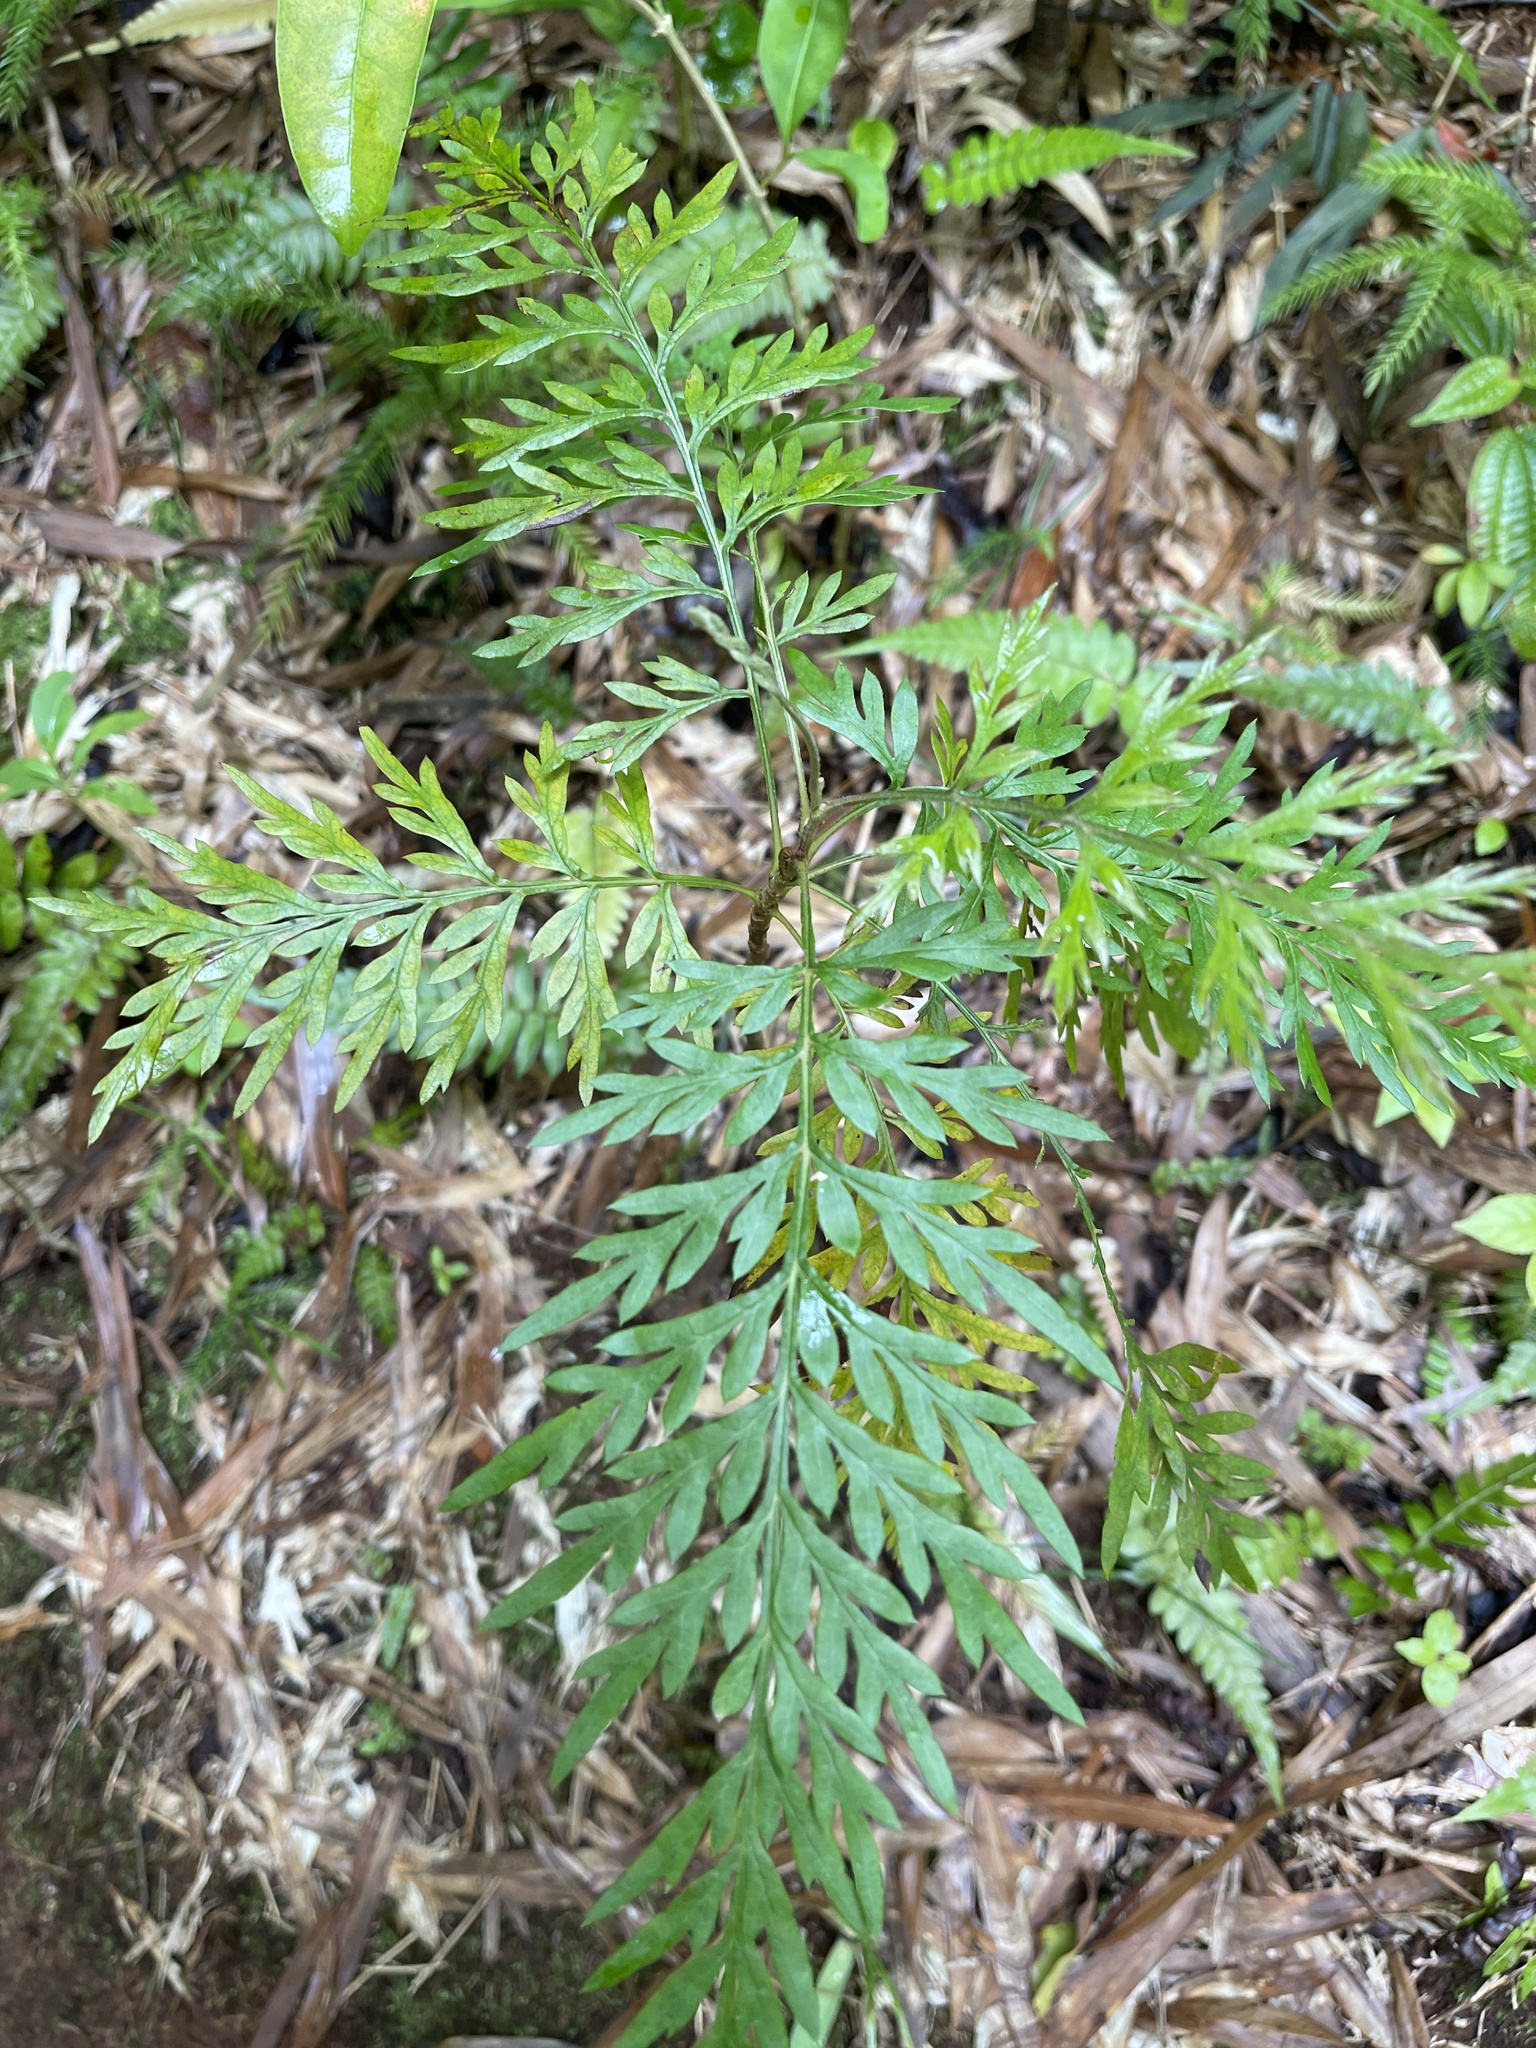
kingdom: Plantae
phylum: Tracheophyta
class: Magnoliopsida
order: Proteales
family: Proteaceae
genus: Grevillea
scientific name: Grevillea robusta
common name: Silkoak
